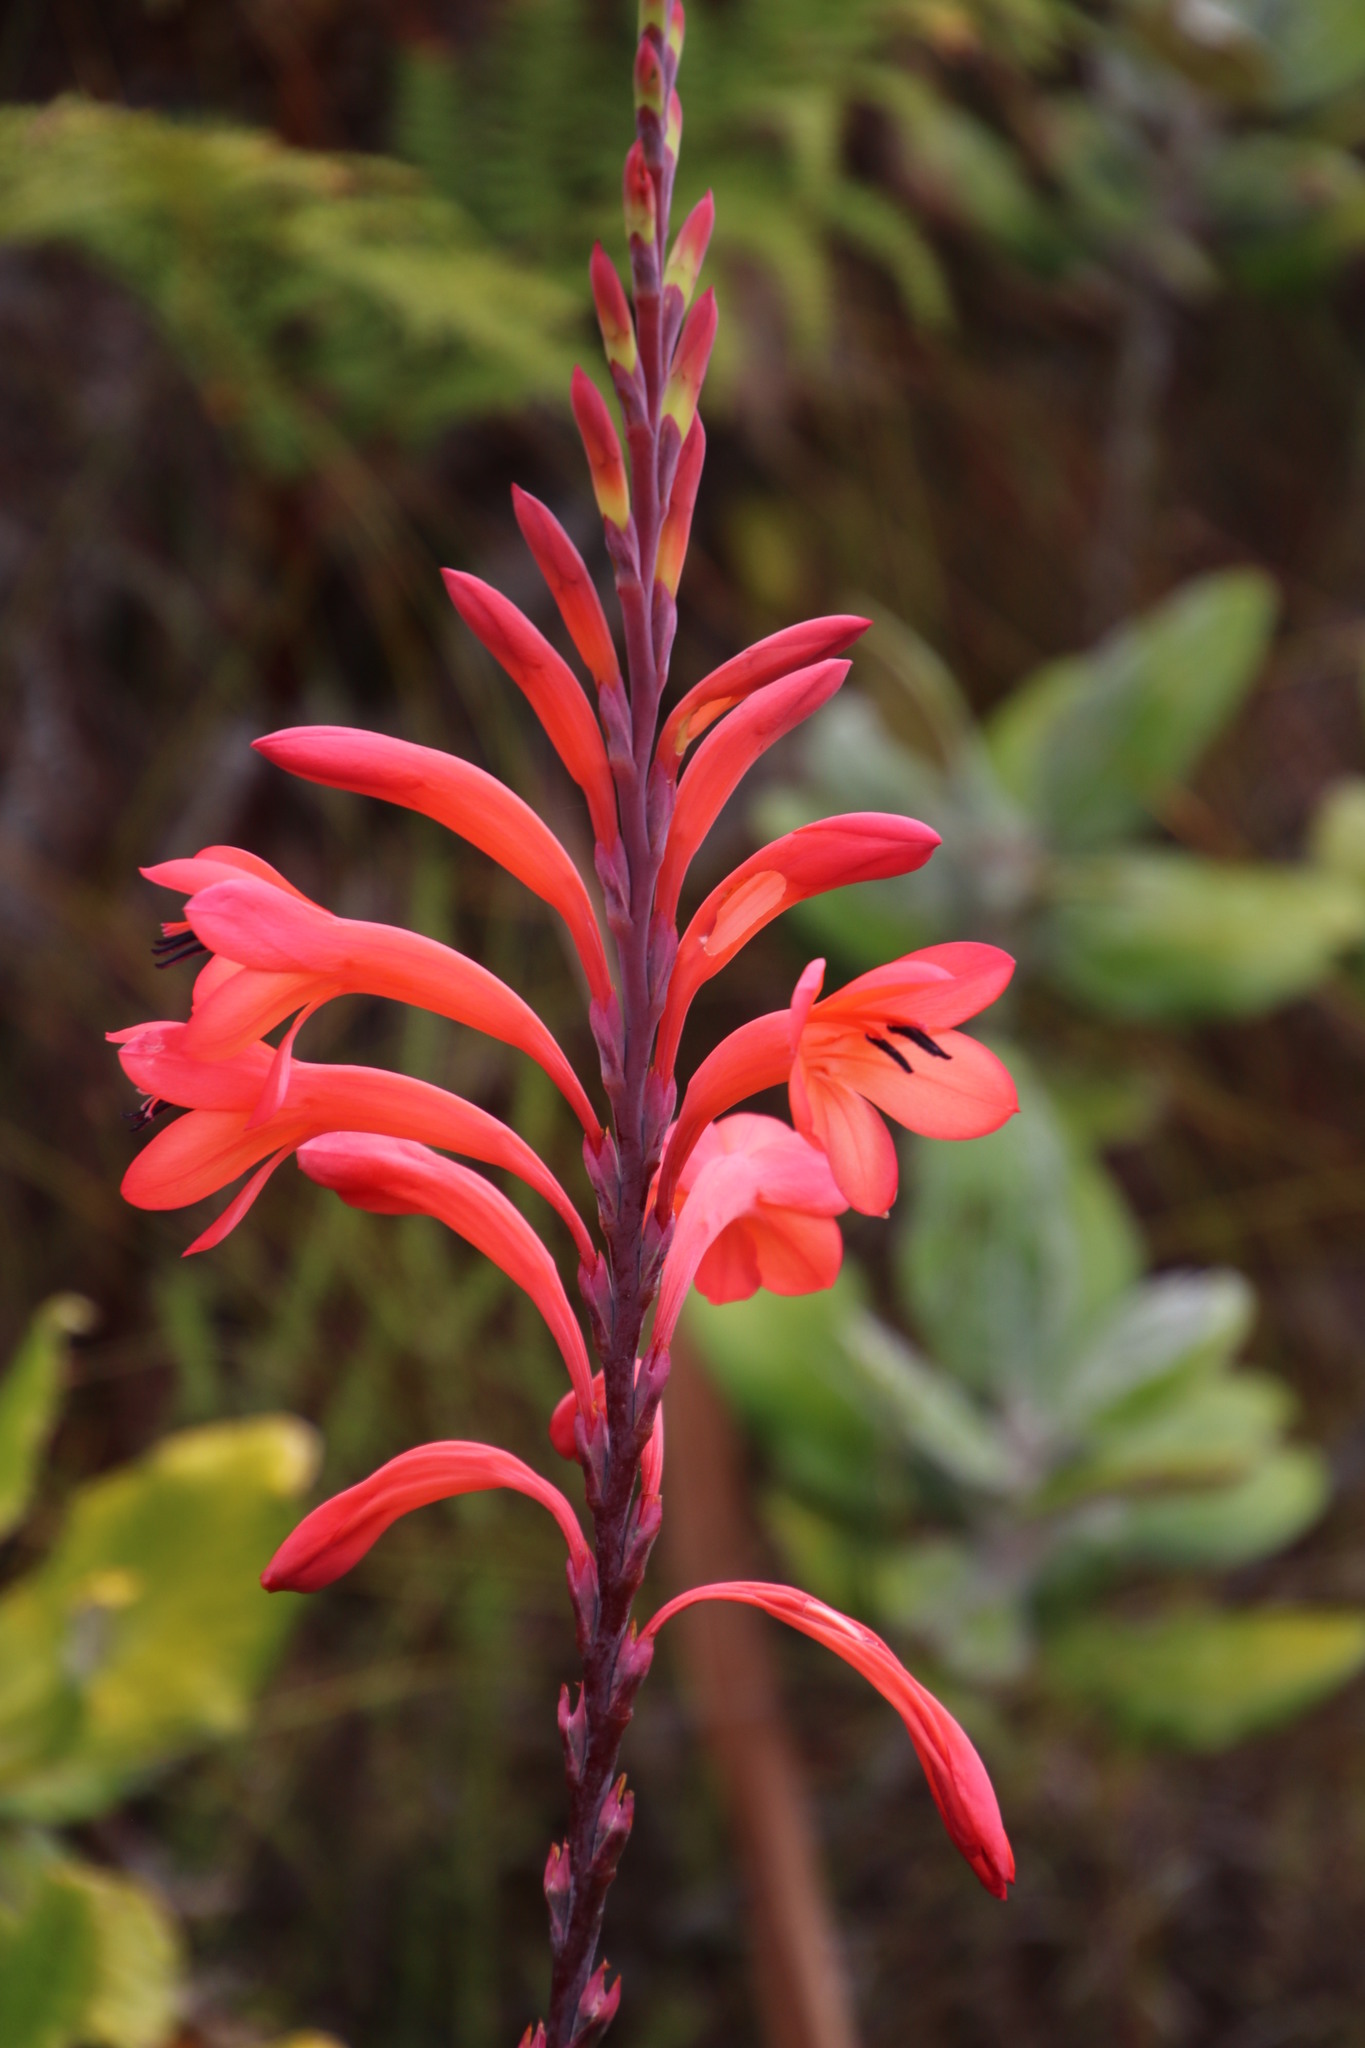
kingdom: Plantae
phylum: Tracheophyta
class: Liliopsida
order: Asparagales
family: Iridaceae
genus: Watsonia
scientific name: Watsonia tabularis
